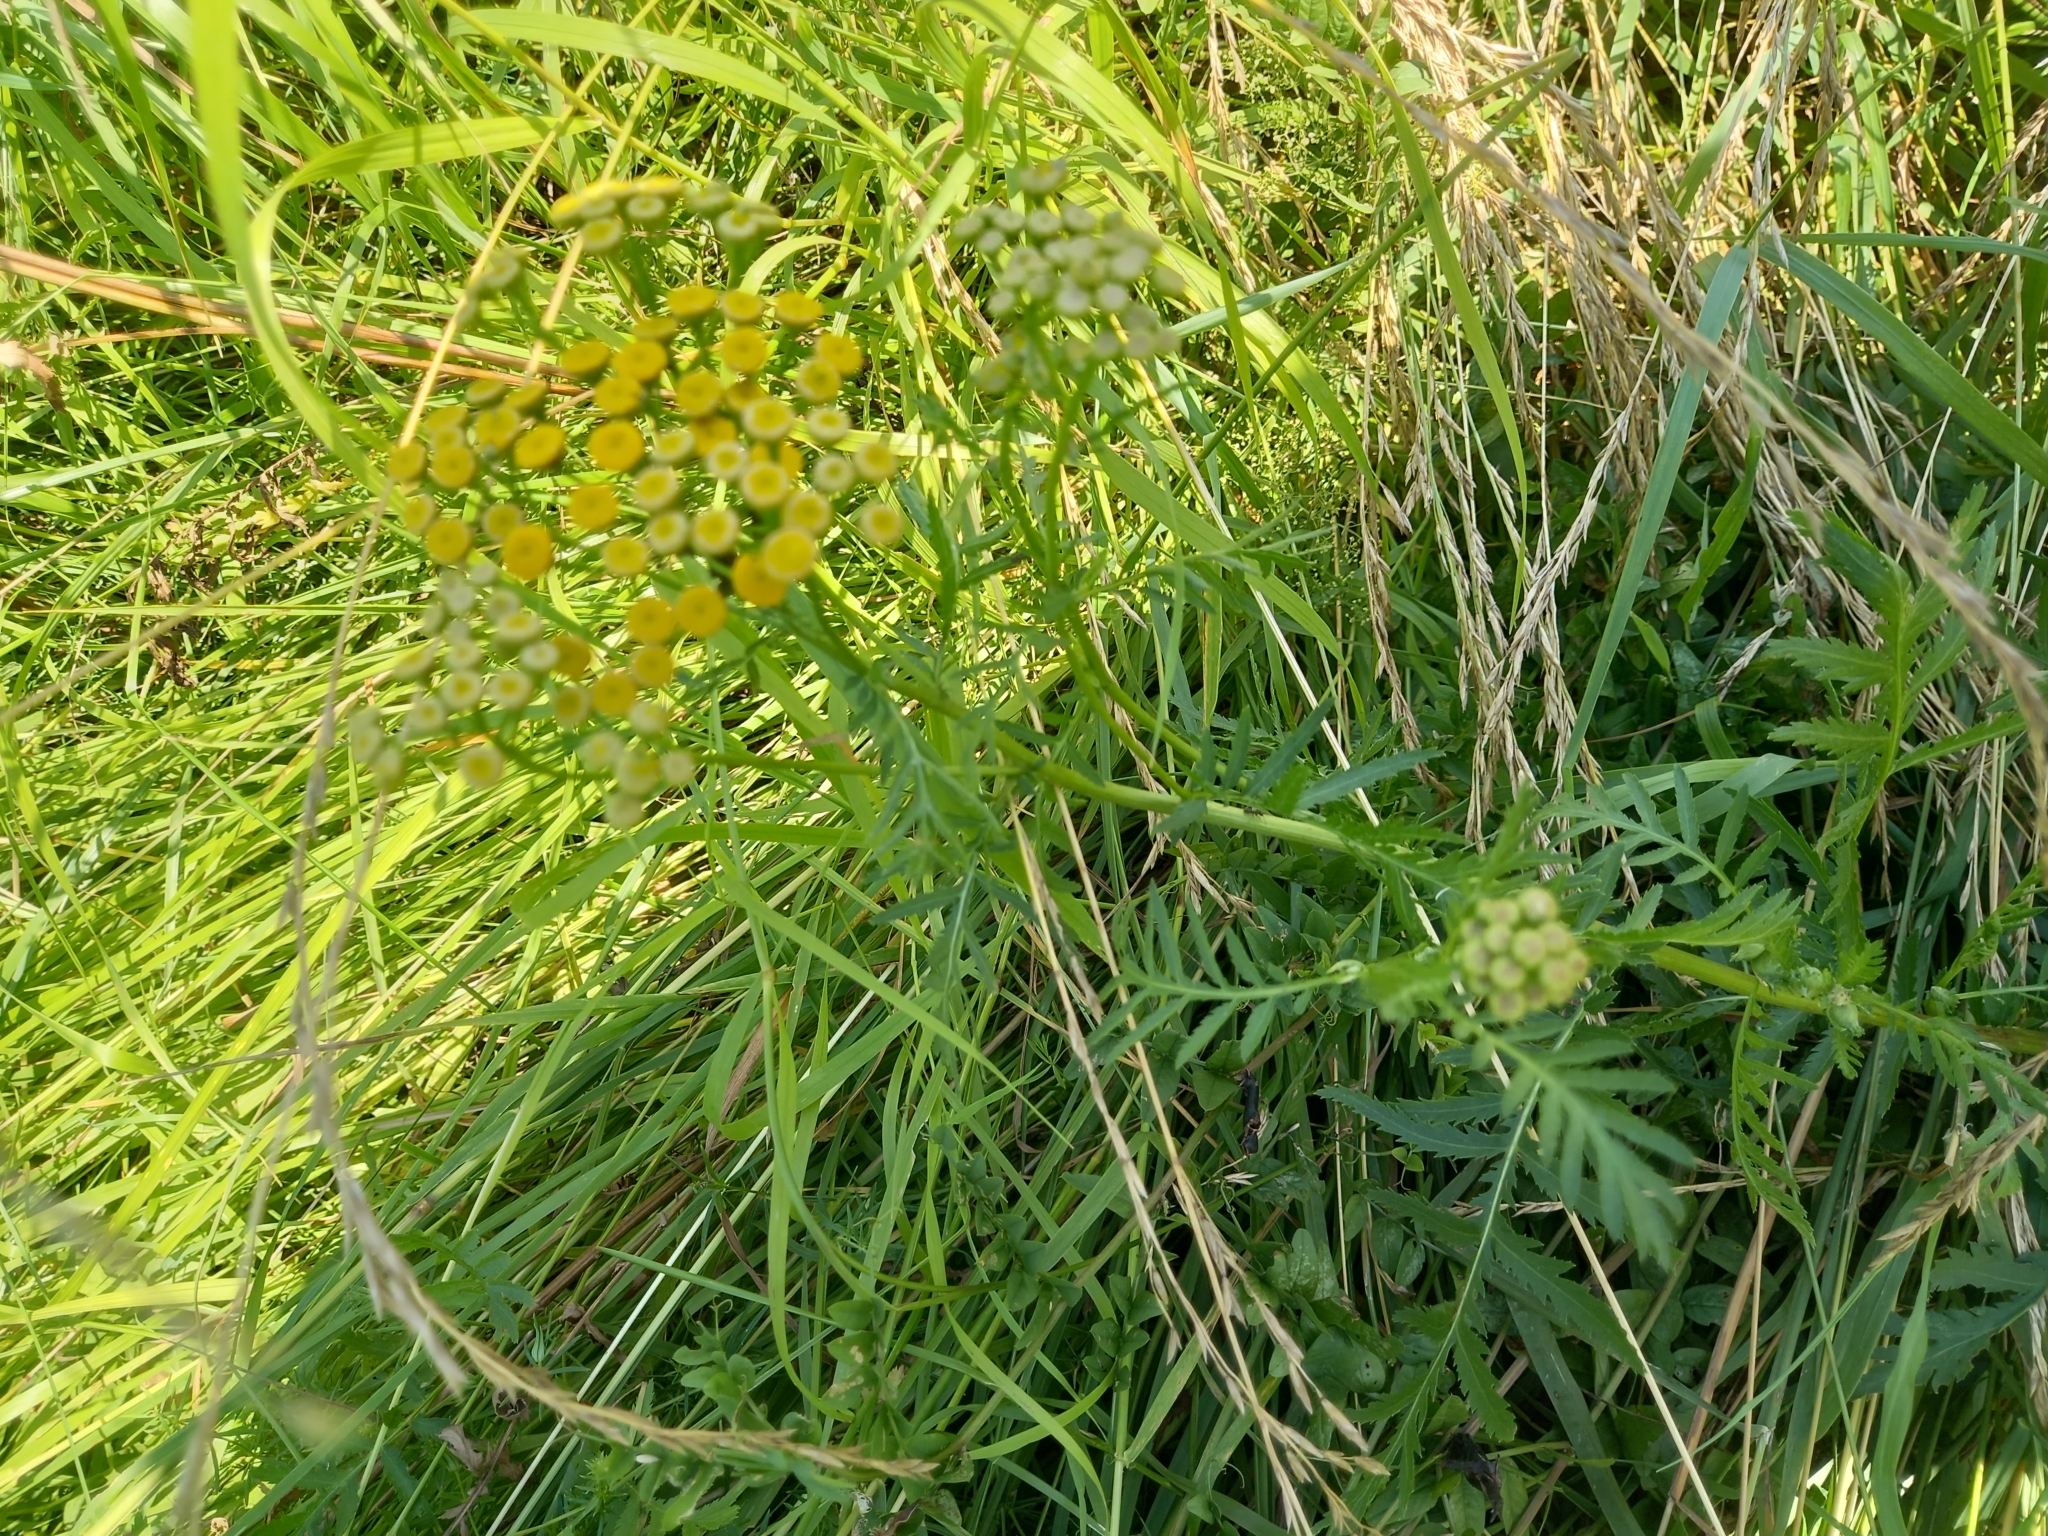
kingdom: Plantae
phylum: Tracheophyta
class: Magnoliopsida
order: Asterales
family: Asteraceae
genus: Tanacetum
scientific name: Tanacetum vulgare
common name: Common tansy
